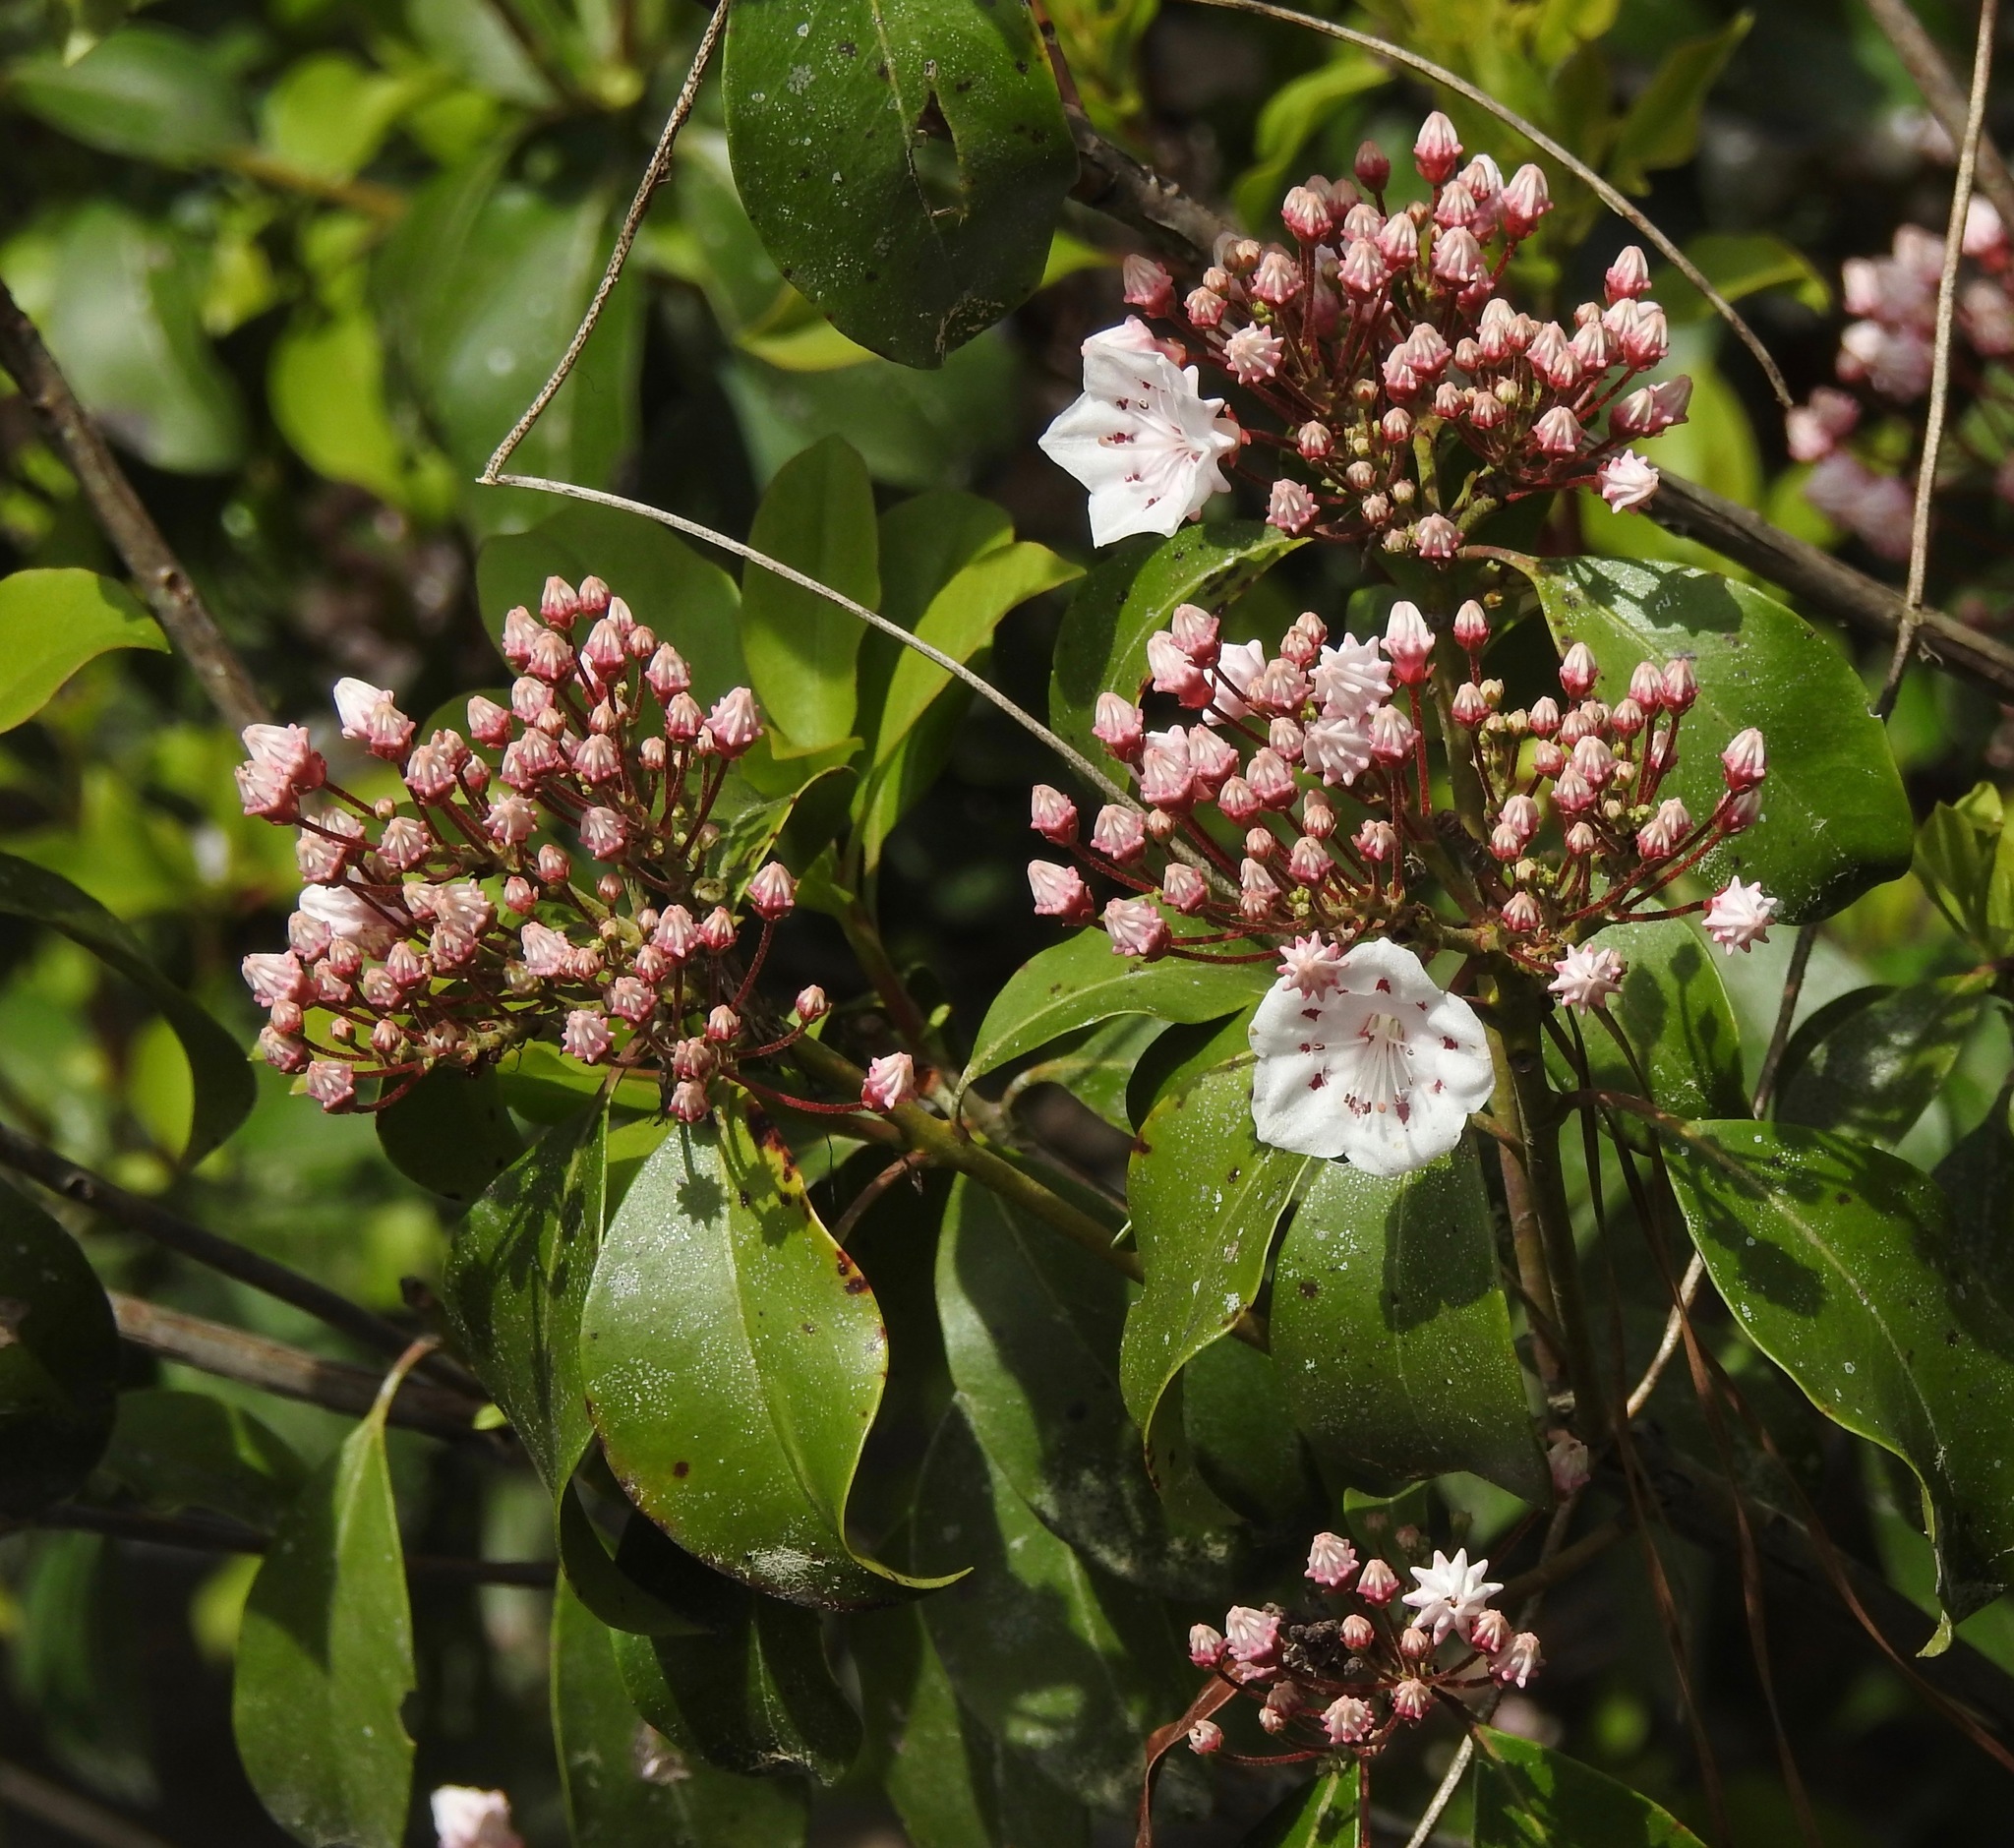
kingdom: Plantae
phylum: Tracheophyta
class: Magnoliopsida
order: Ericales
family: Ericaceae
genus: Kalmia
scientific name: Kalmia latifolia
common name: Mountain-laurel
